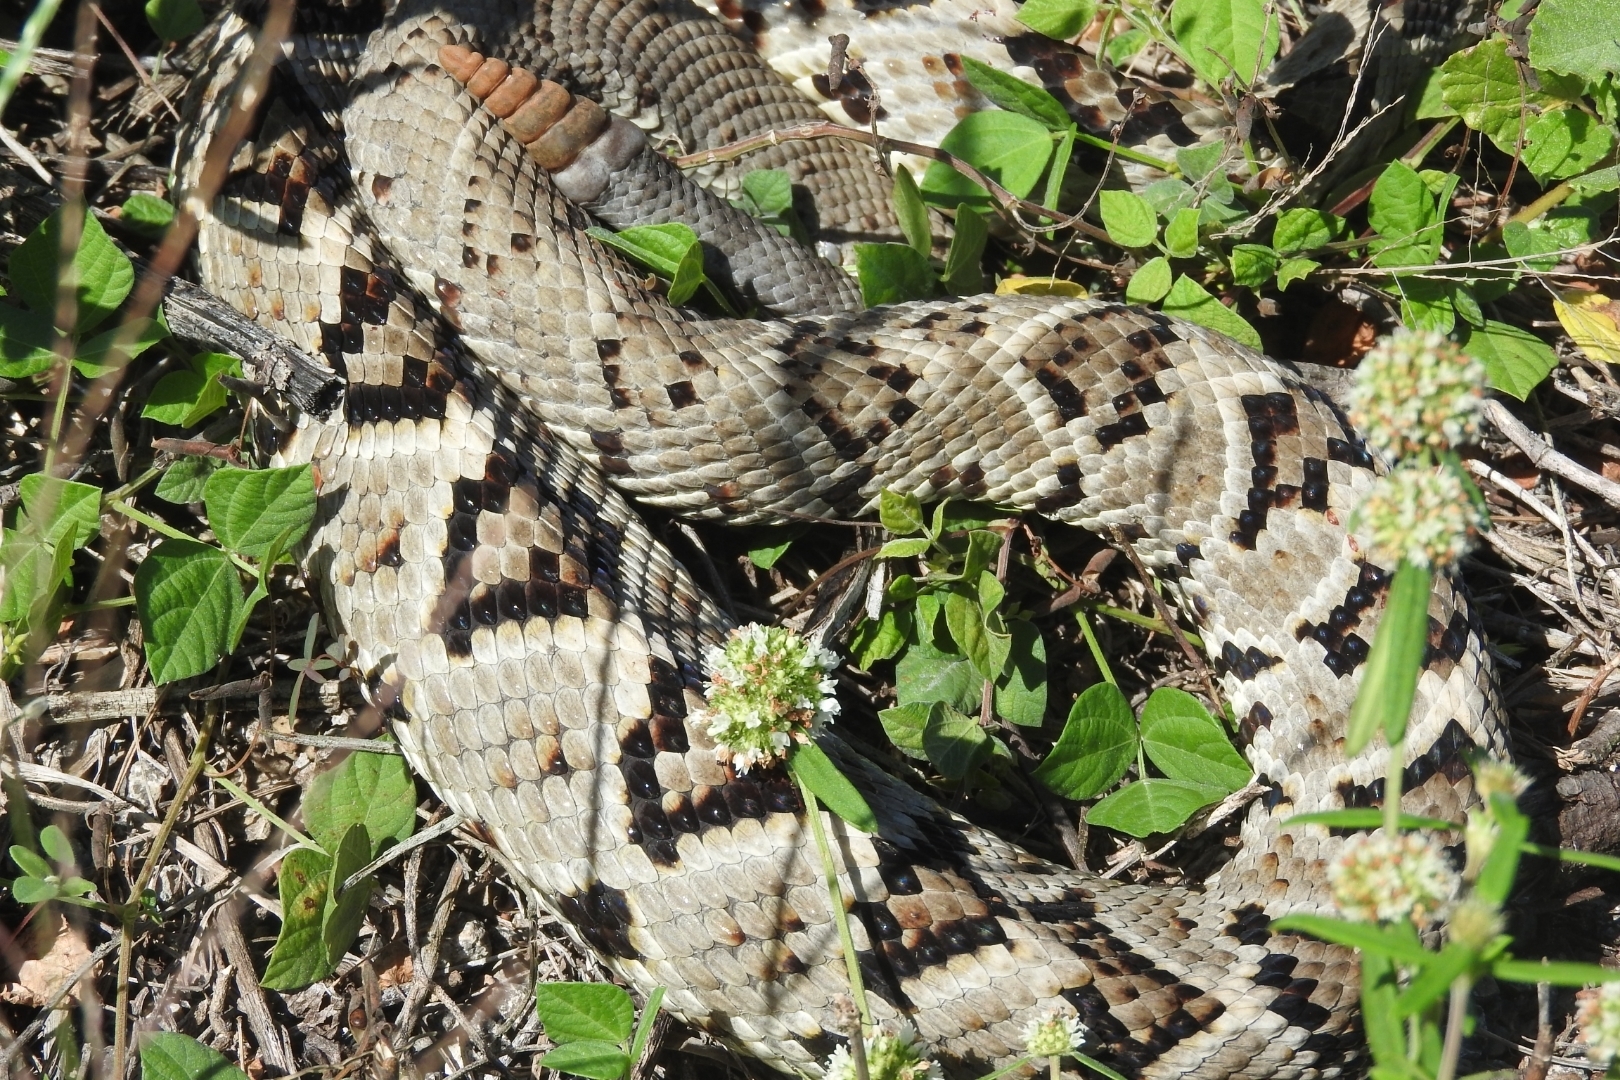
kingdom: Animalia
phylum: Chordata
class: Squamata
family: Viperidae
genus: Crotalus
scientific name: Crotalus tzabcan
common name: Yucatan neotropical rattlesnake
